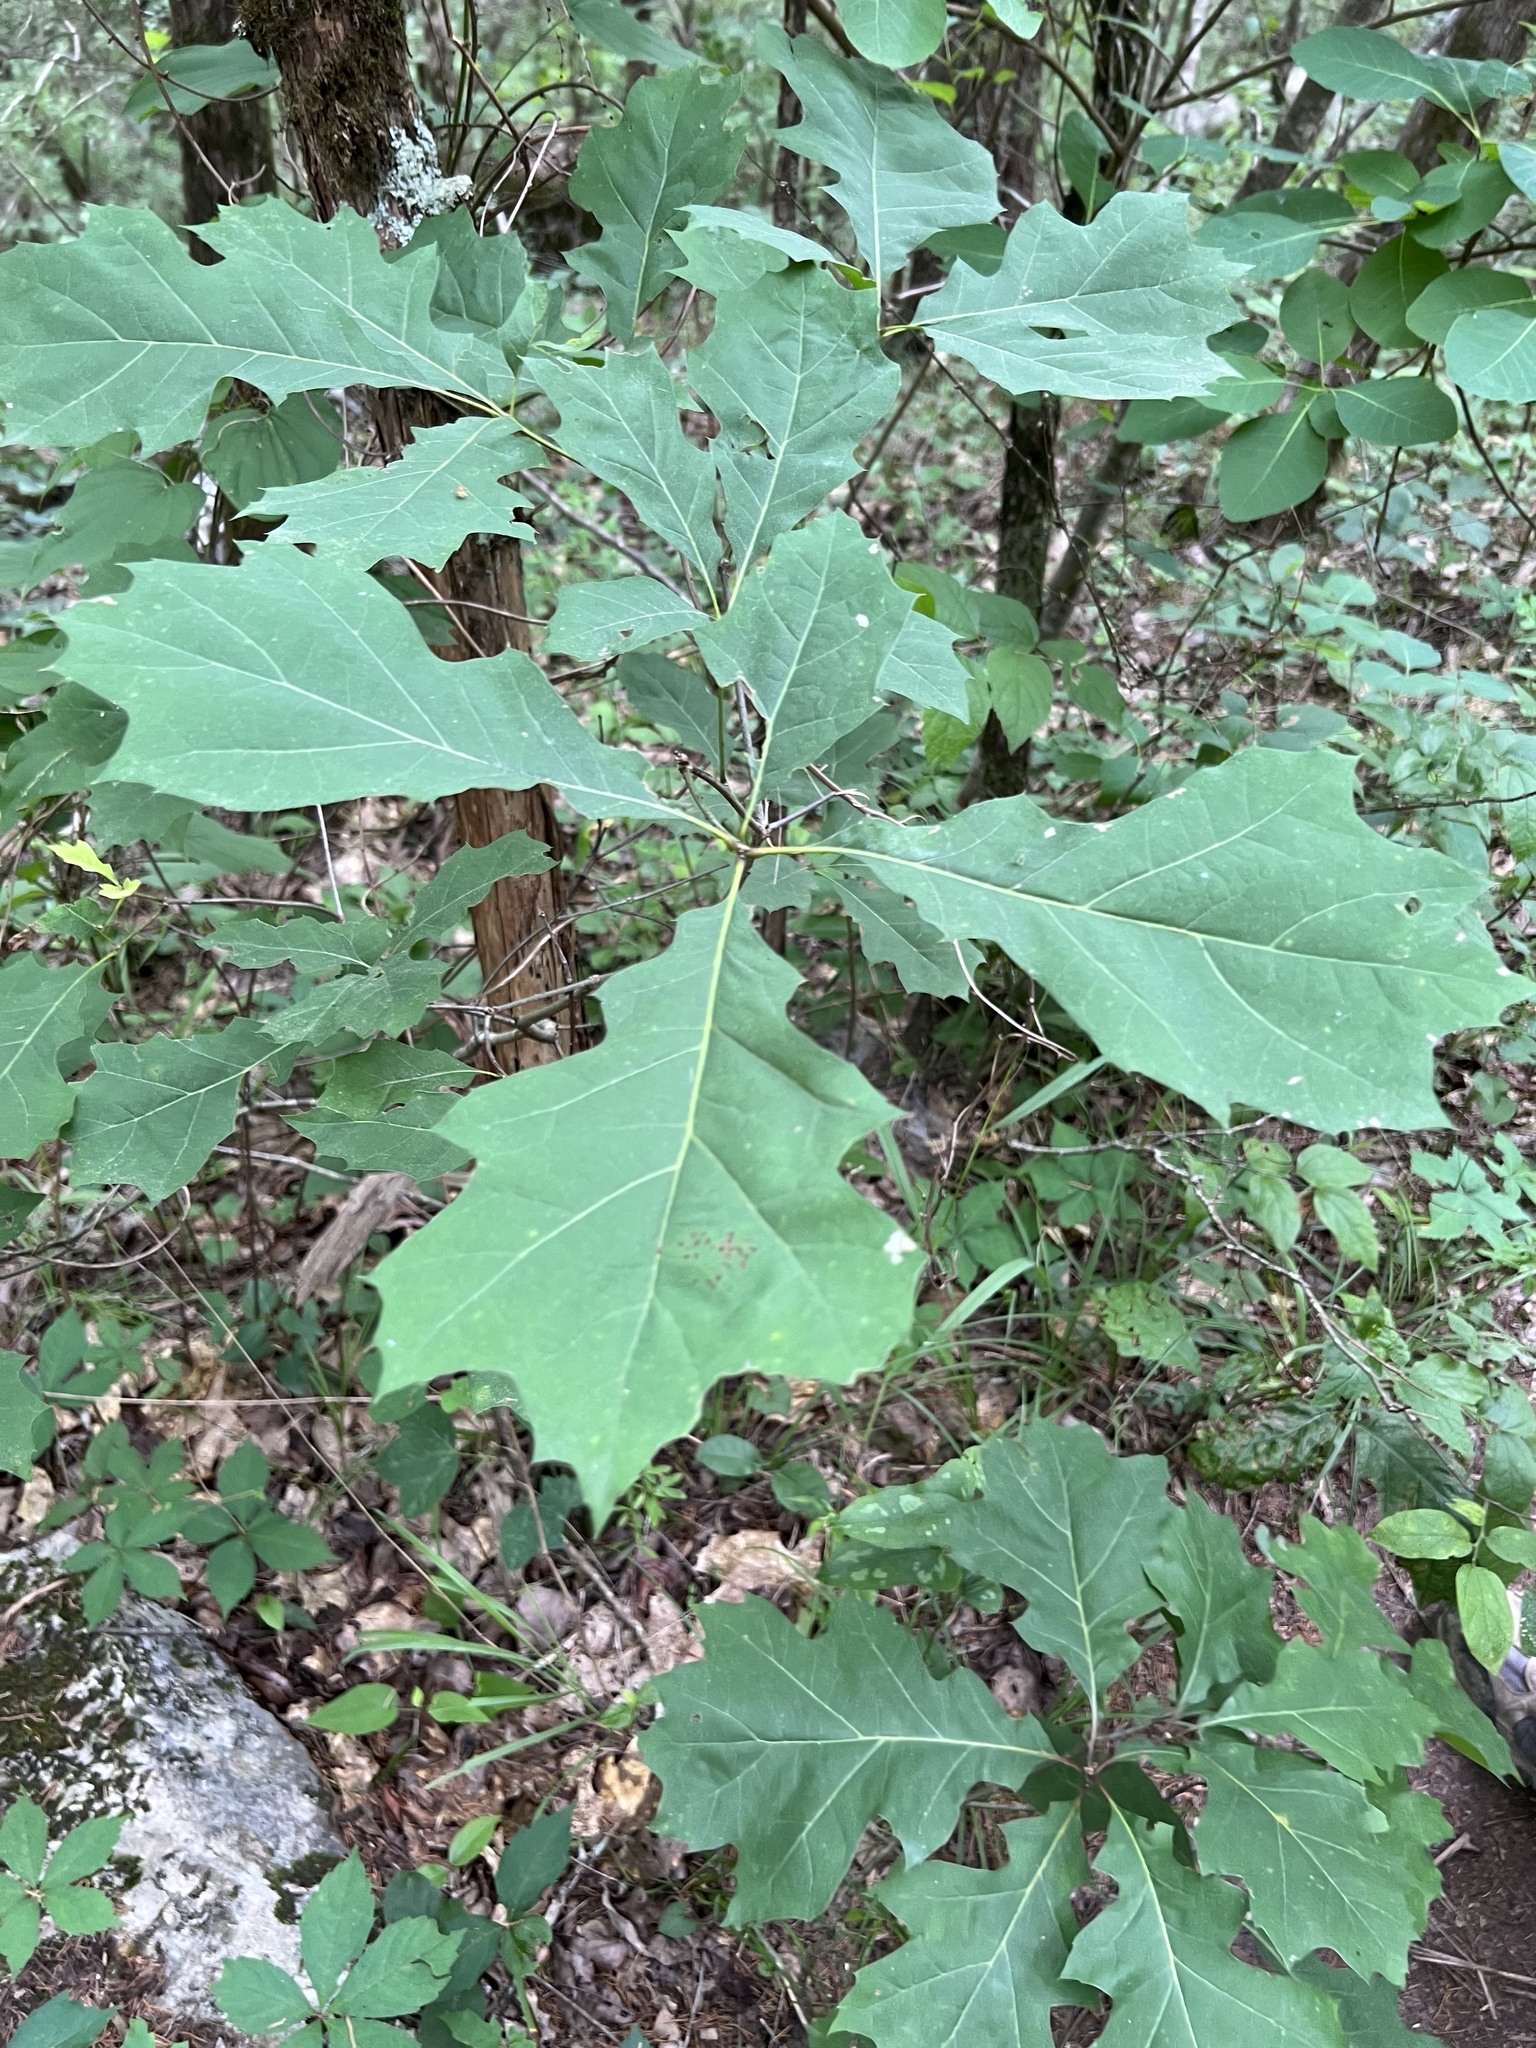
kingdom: Plantae
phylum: Tracheophyta
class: Magnoliopsida
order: Fagales
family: Fagaceae
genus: Quercus
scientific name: Quercus shumardii
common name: Shumard oak
